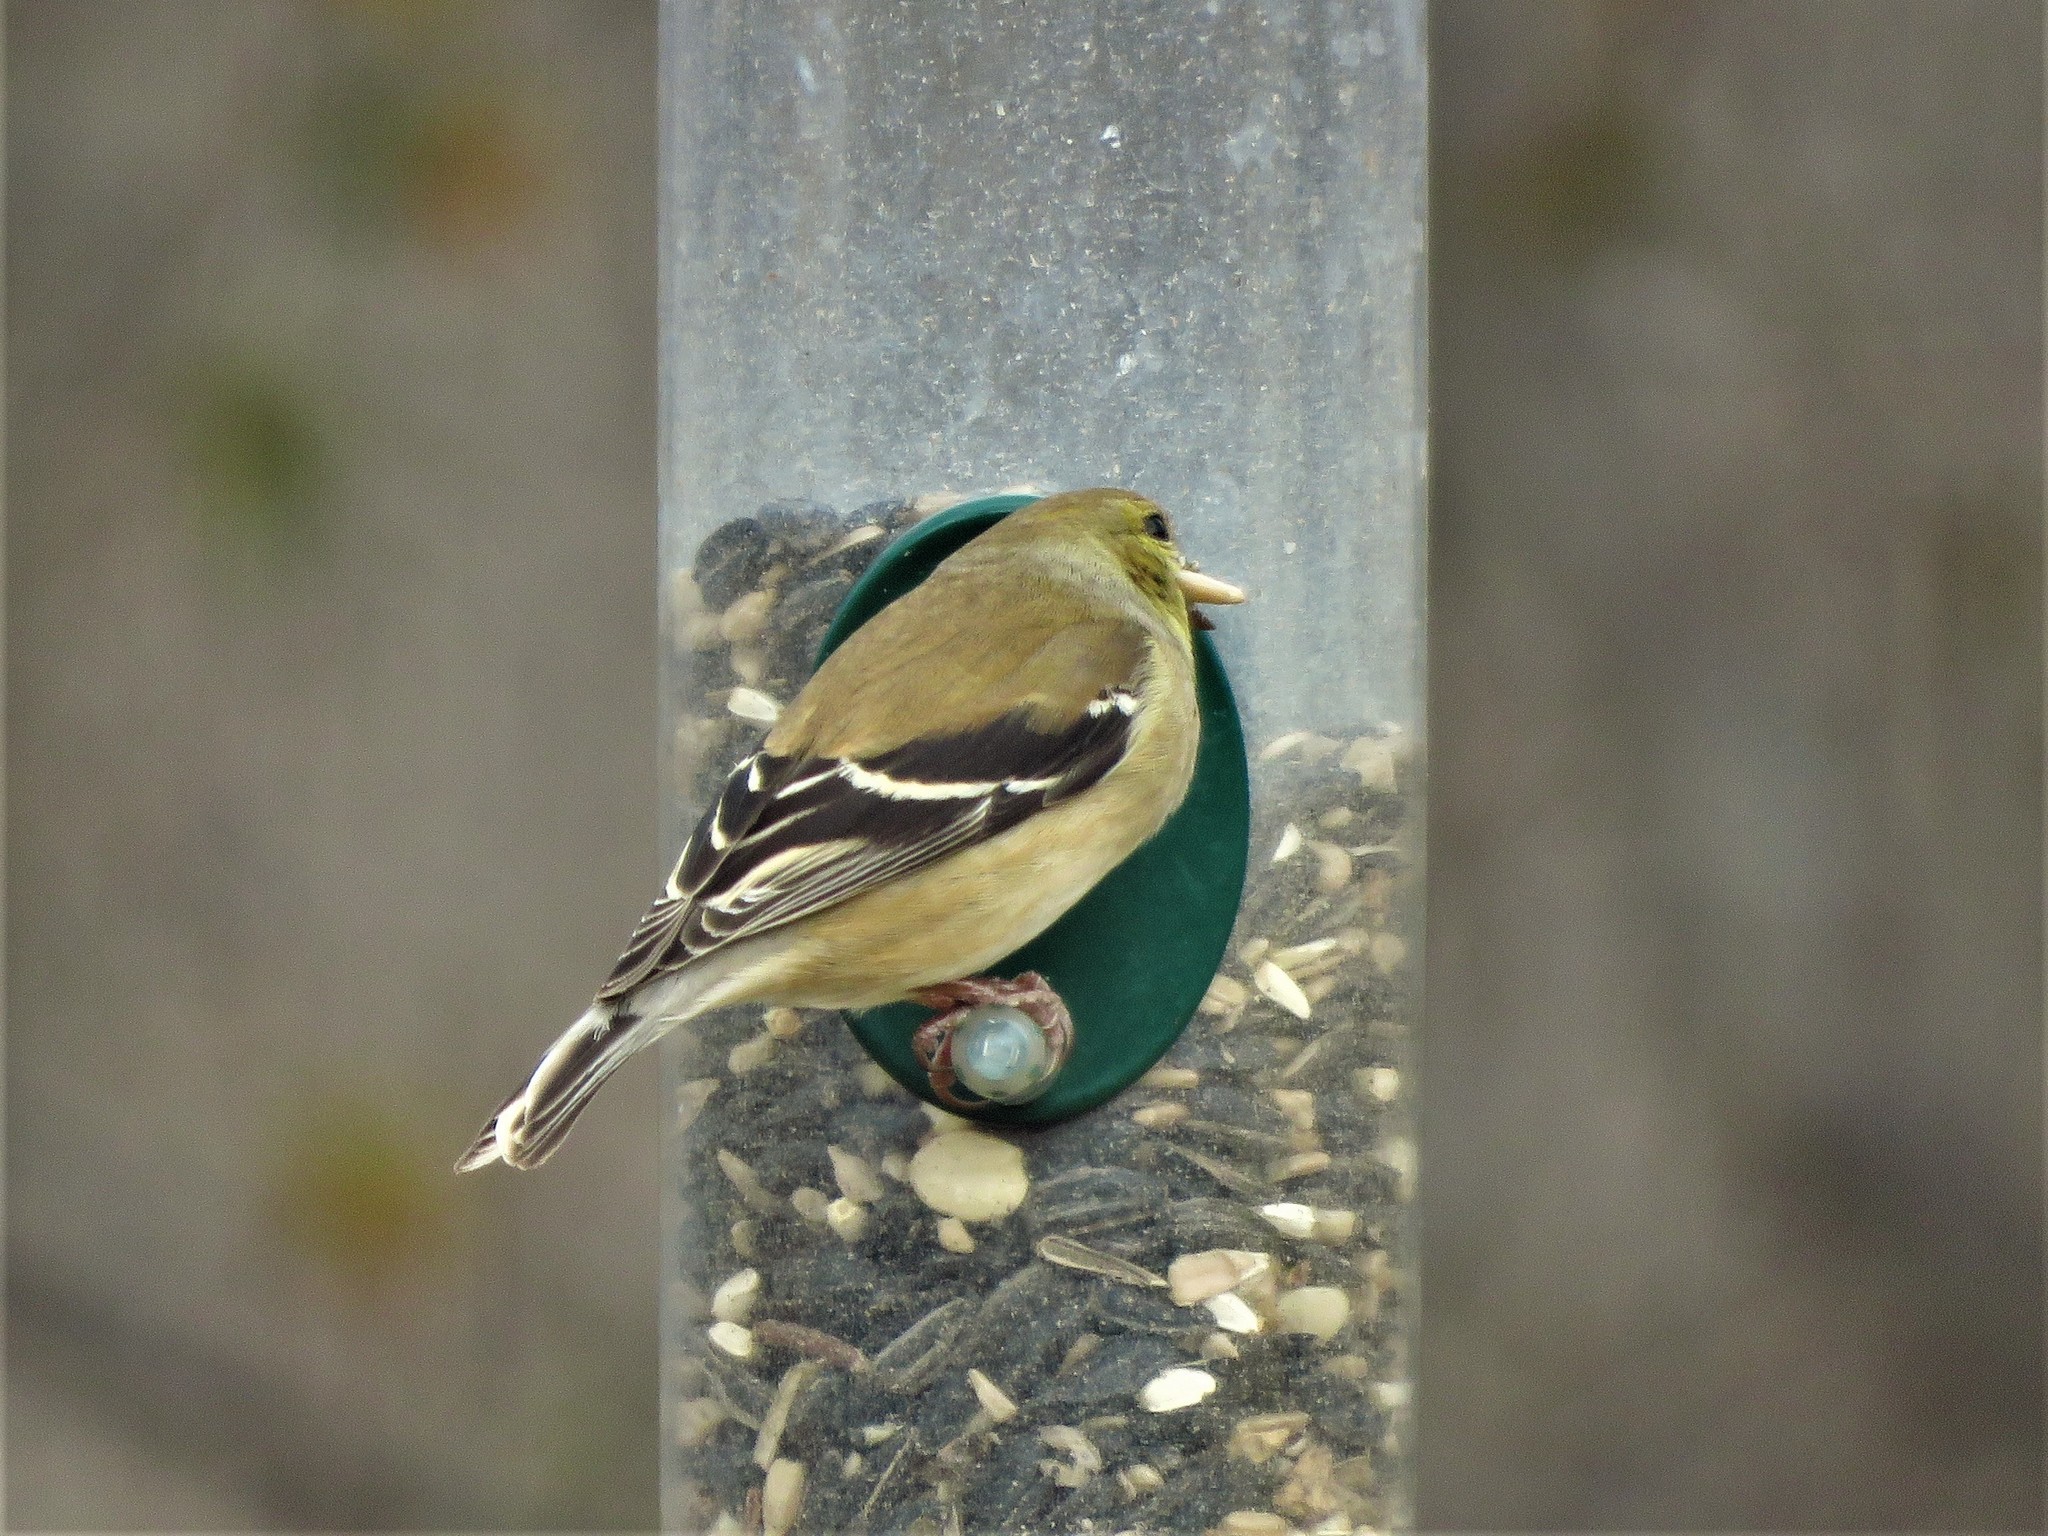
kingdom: Animalia
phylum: Chordata
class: Aves
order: Passeriformes
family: Fringillidae
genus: Spinus
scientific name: Spinus tristis
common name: American goldfinch
